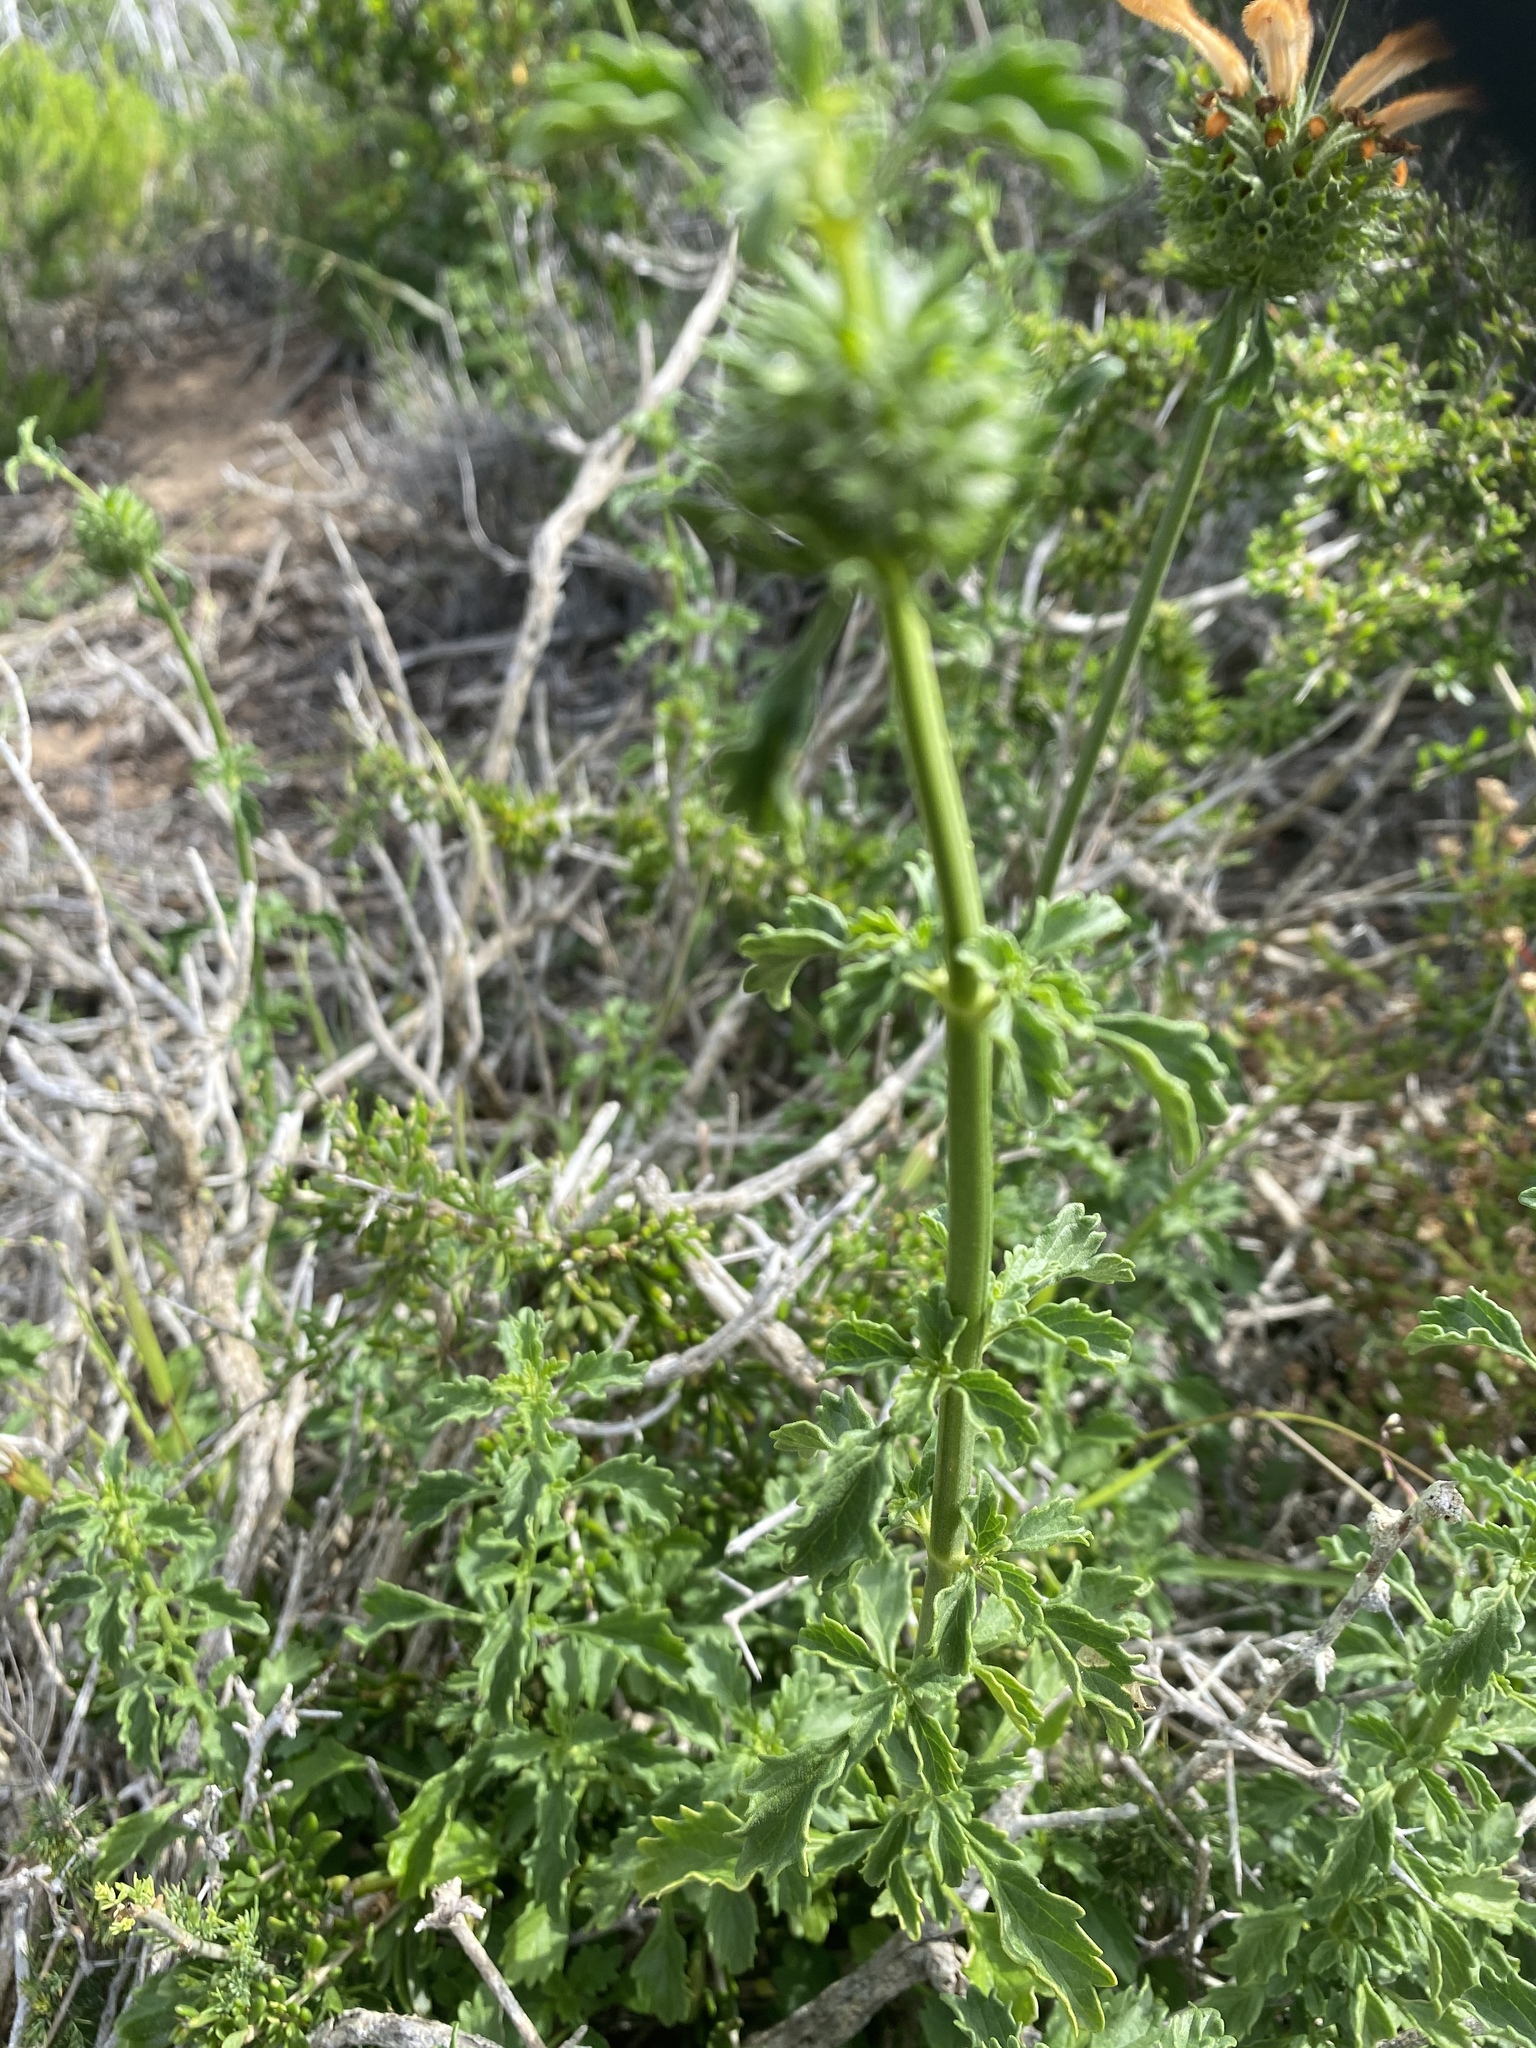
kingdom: Plantae
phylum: Tracheophyta
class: Magnoliopsida
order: Lamiales
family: Lamiaceae
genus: Leonotis
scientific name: Leonotis ocymifolia
